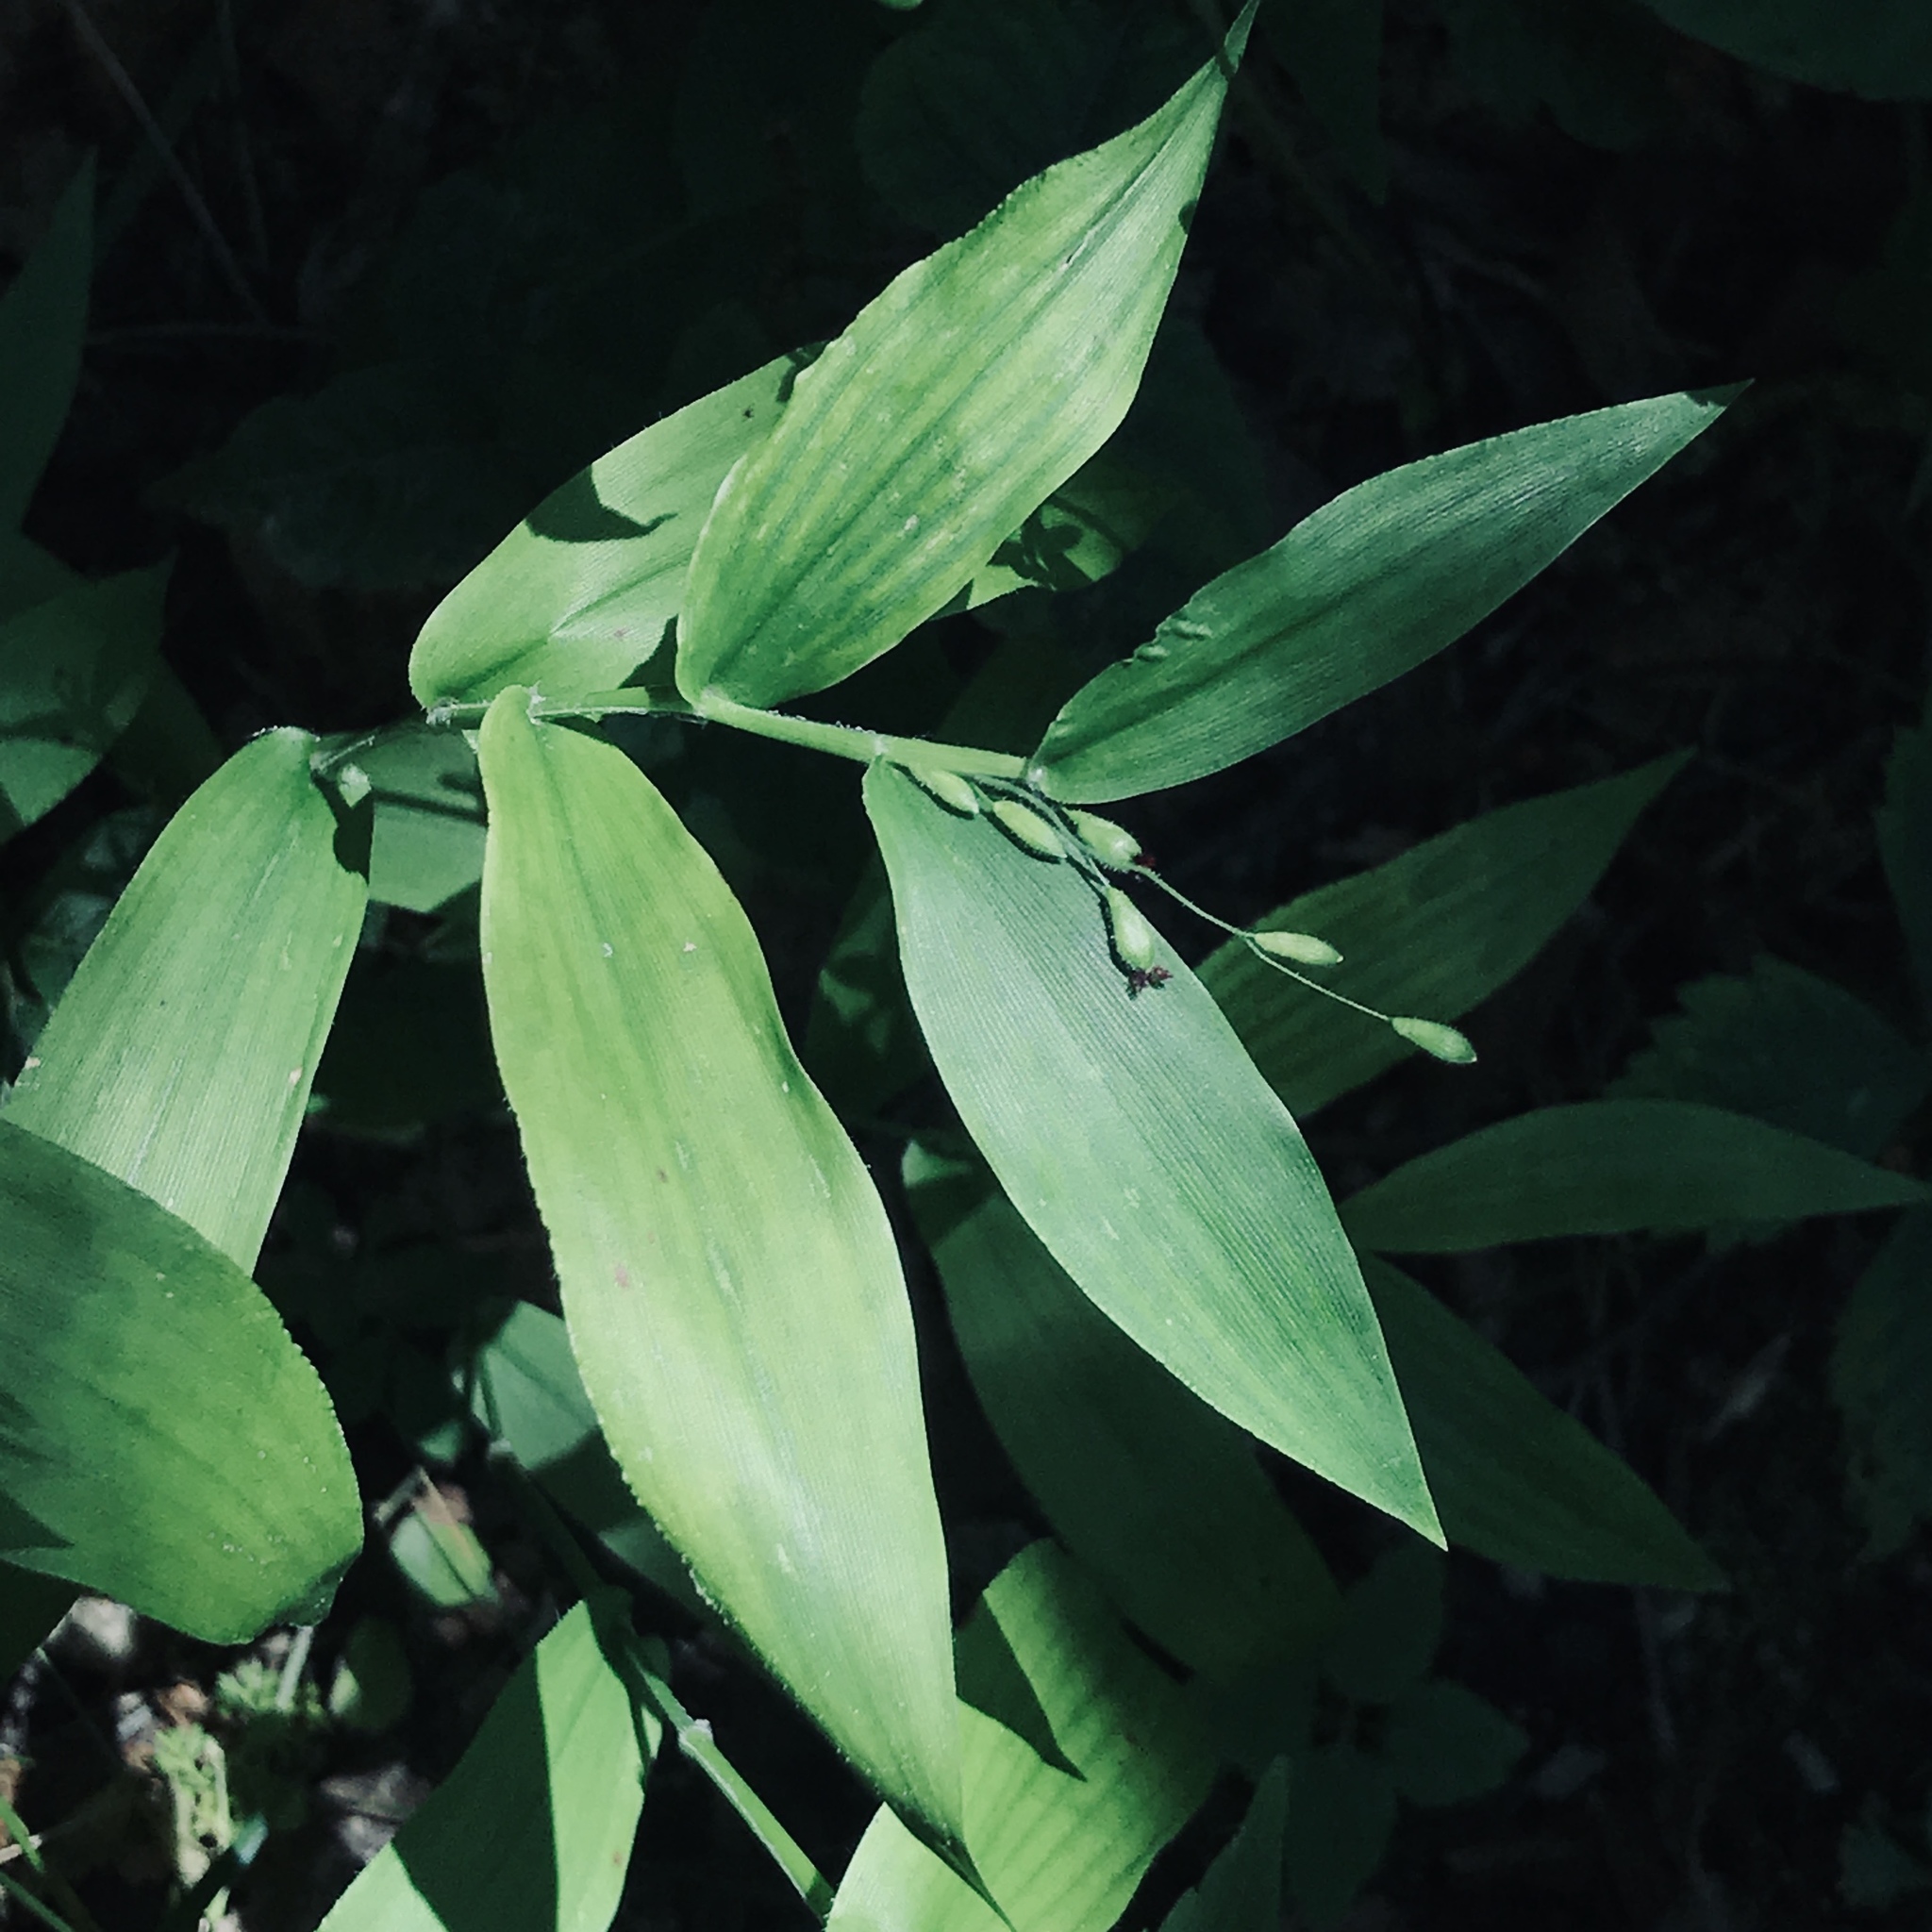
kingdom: Plantae
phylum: Tracheophyta
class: Liliopsida
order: Poales
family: Poaceae
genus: Dichanthelium
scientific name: Dichanthelium boscii
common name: Bosc's panic grass
